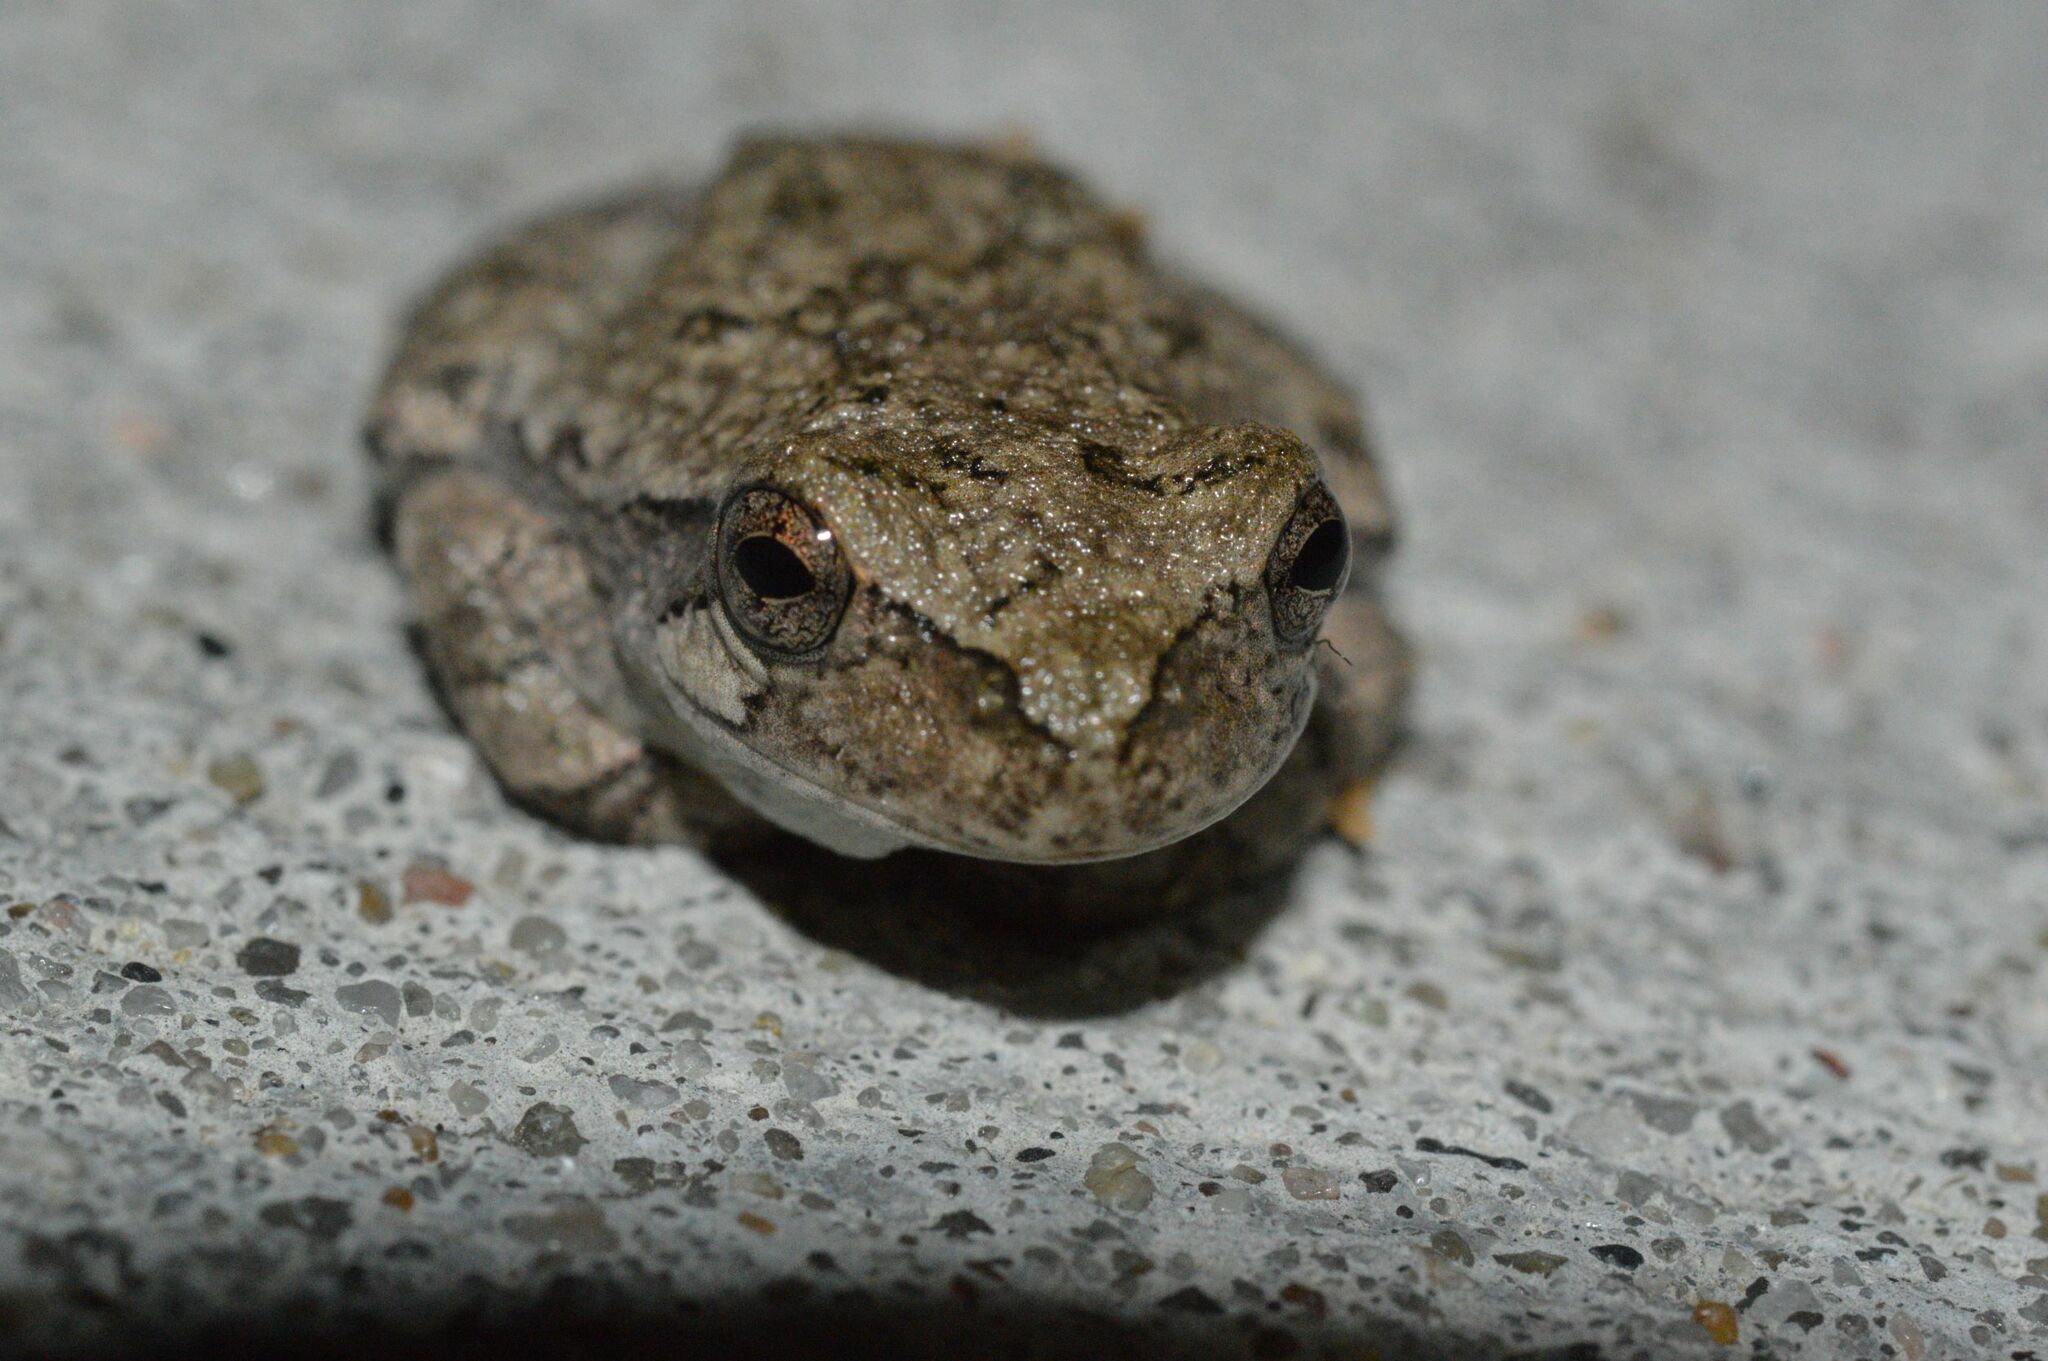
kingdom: Animalia
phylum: Chordata
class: Amphibia
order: Anura
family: Hylidae
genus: Dryophytes
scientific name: Dryophytes chrysoscelis
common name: Cope's gray treefrog
